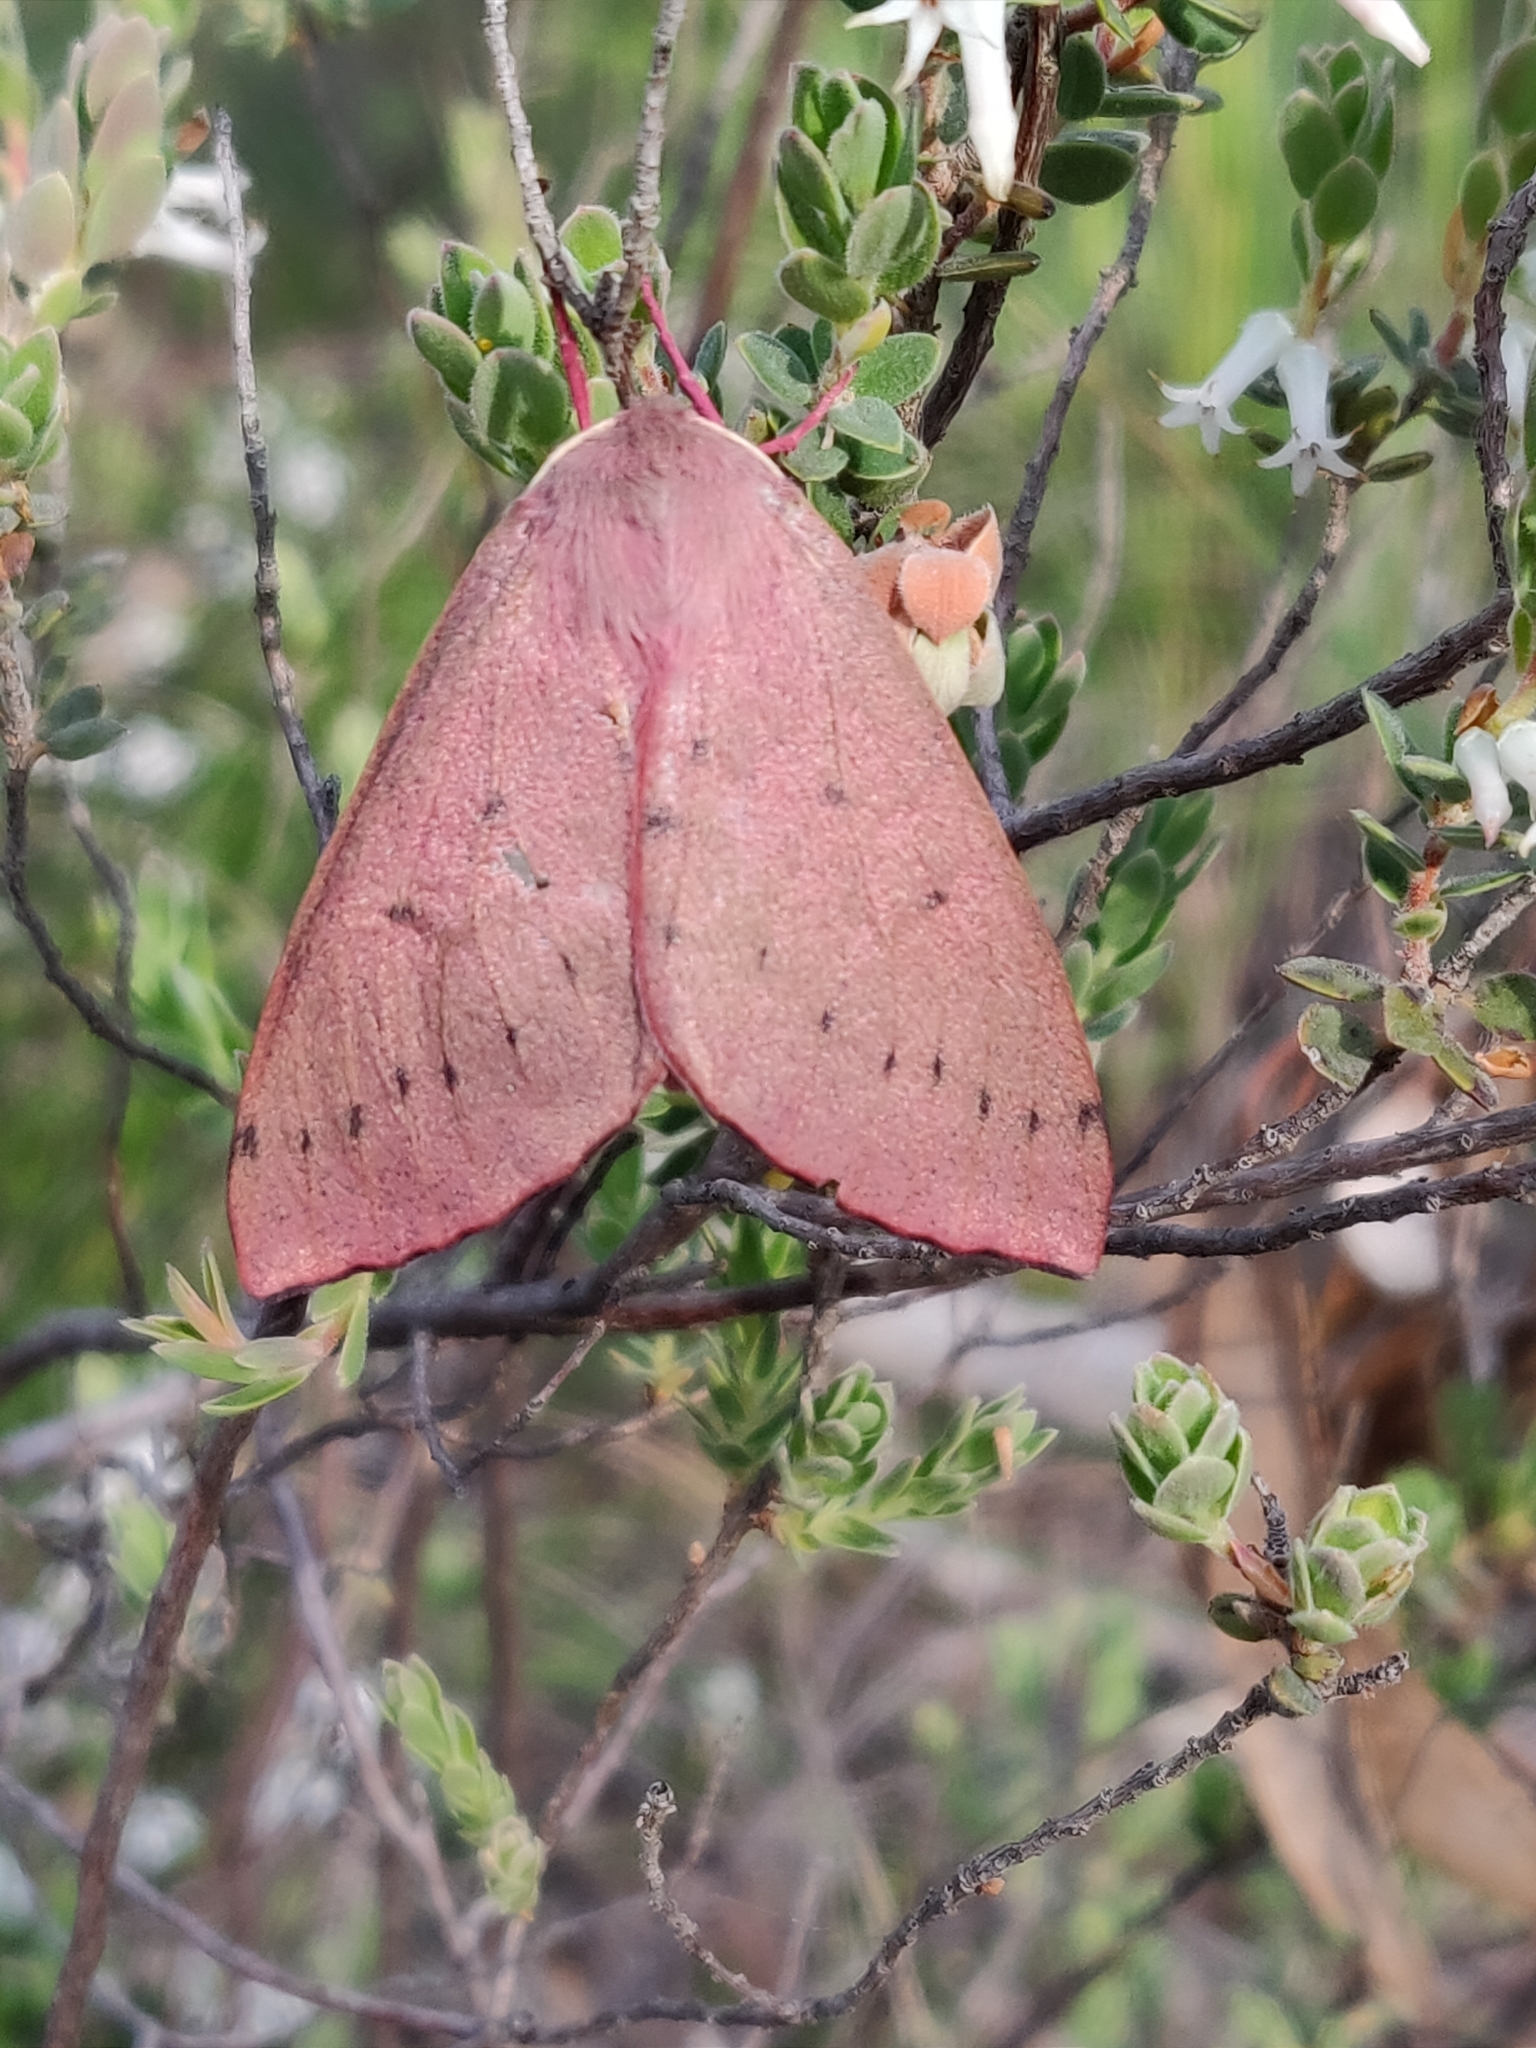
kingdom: Animalia
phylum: Arthropoda
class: Insecta
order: Lepidoptera
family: Geometridae
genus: Arhodia
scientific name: Arhodia lasiocamparia
